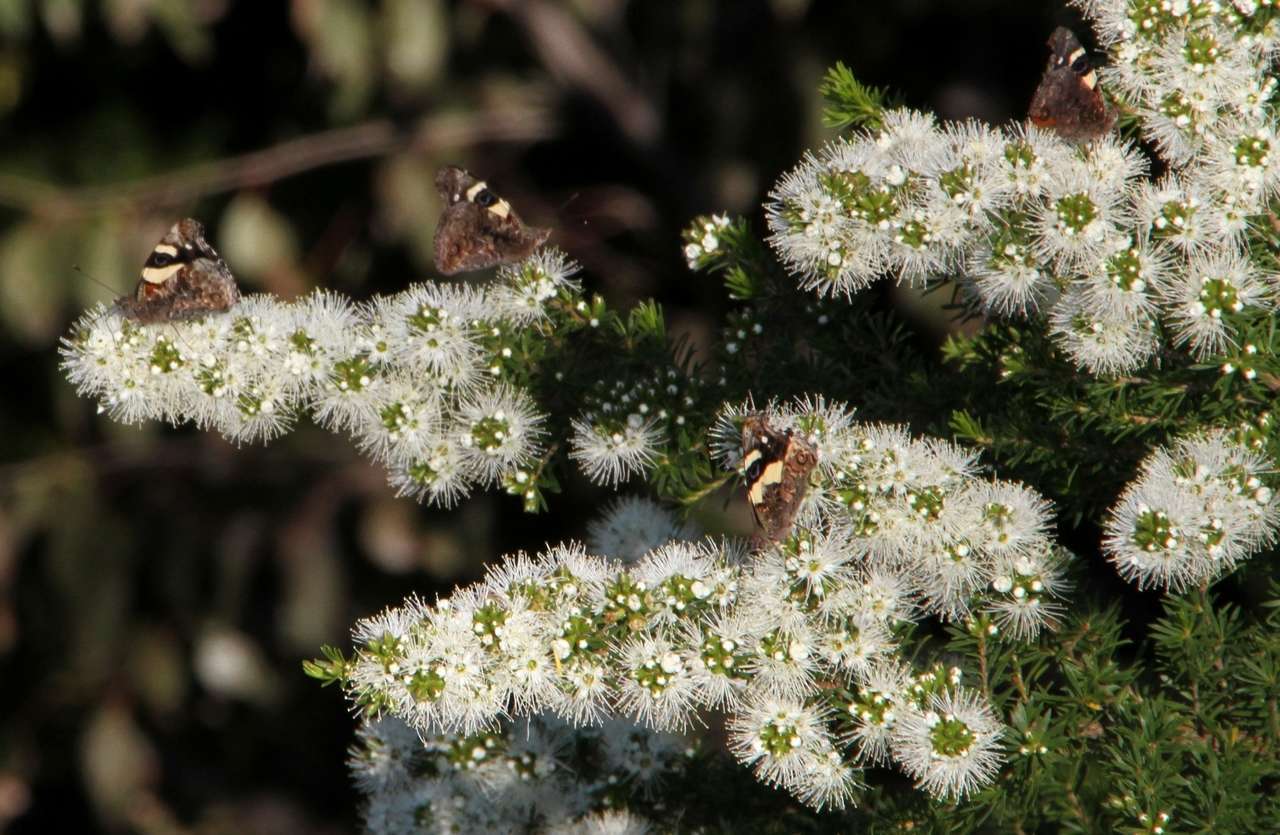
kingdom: Plantae
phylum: Tracheophyta
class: Magnoliopsida
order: Myrtales
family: Myrtaceae
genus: Kunzea
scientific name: Kunzea ambigua
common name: Tickbush
